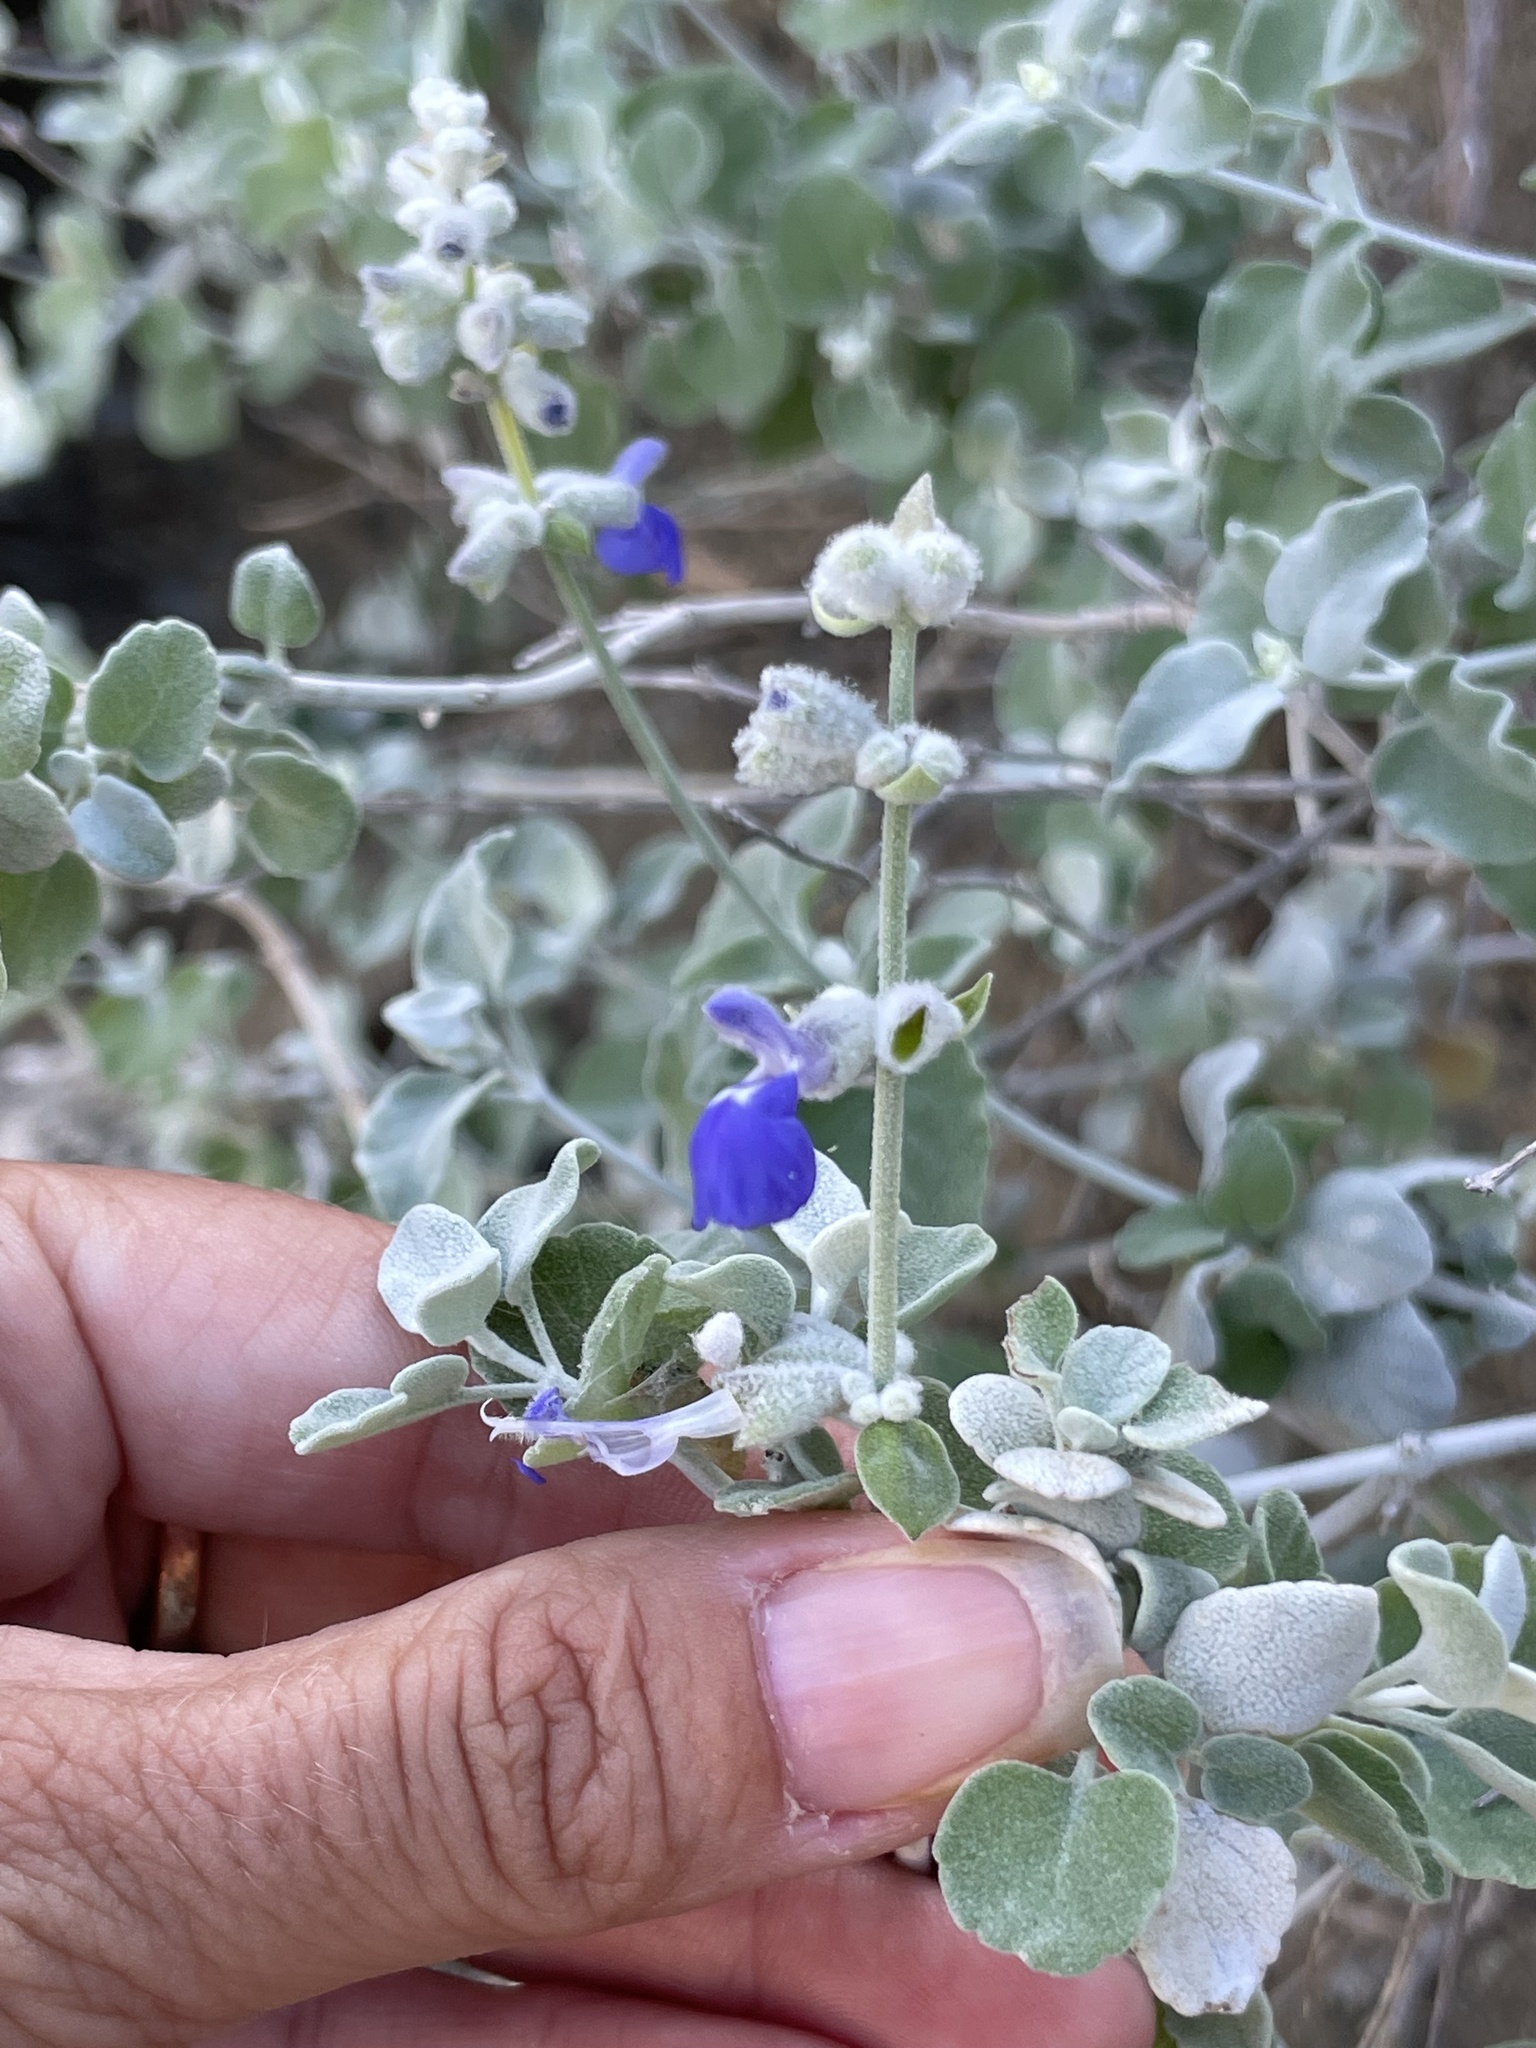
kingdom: Plantae
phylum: Tracheophyta
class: Magnoliopsida
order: Lamiales
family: Lamiaceae
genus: Salvia
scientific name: Salvia cedrosensis
